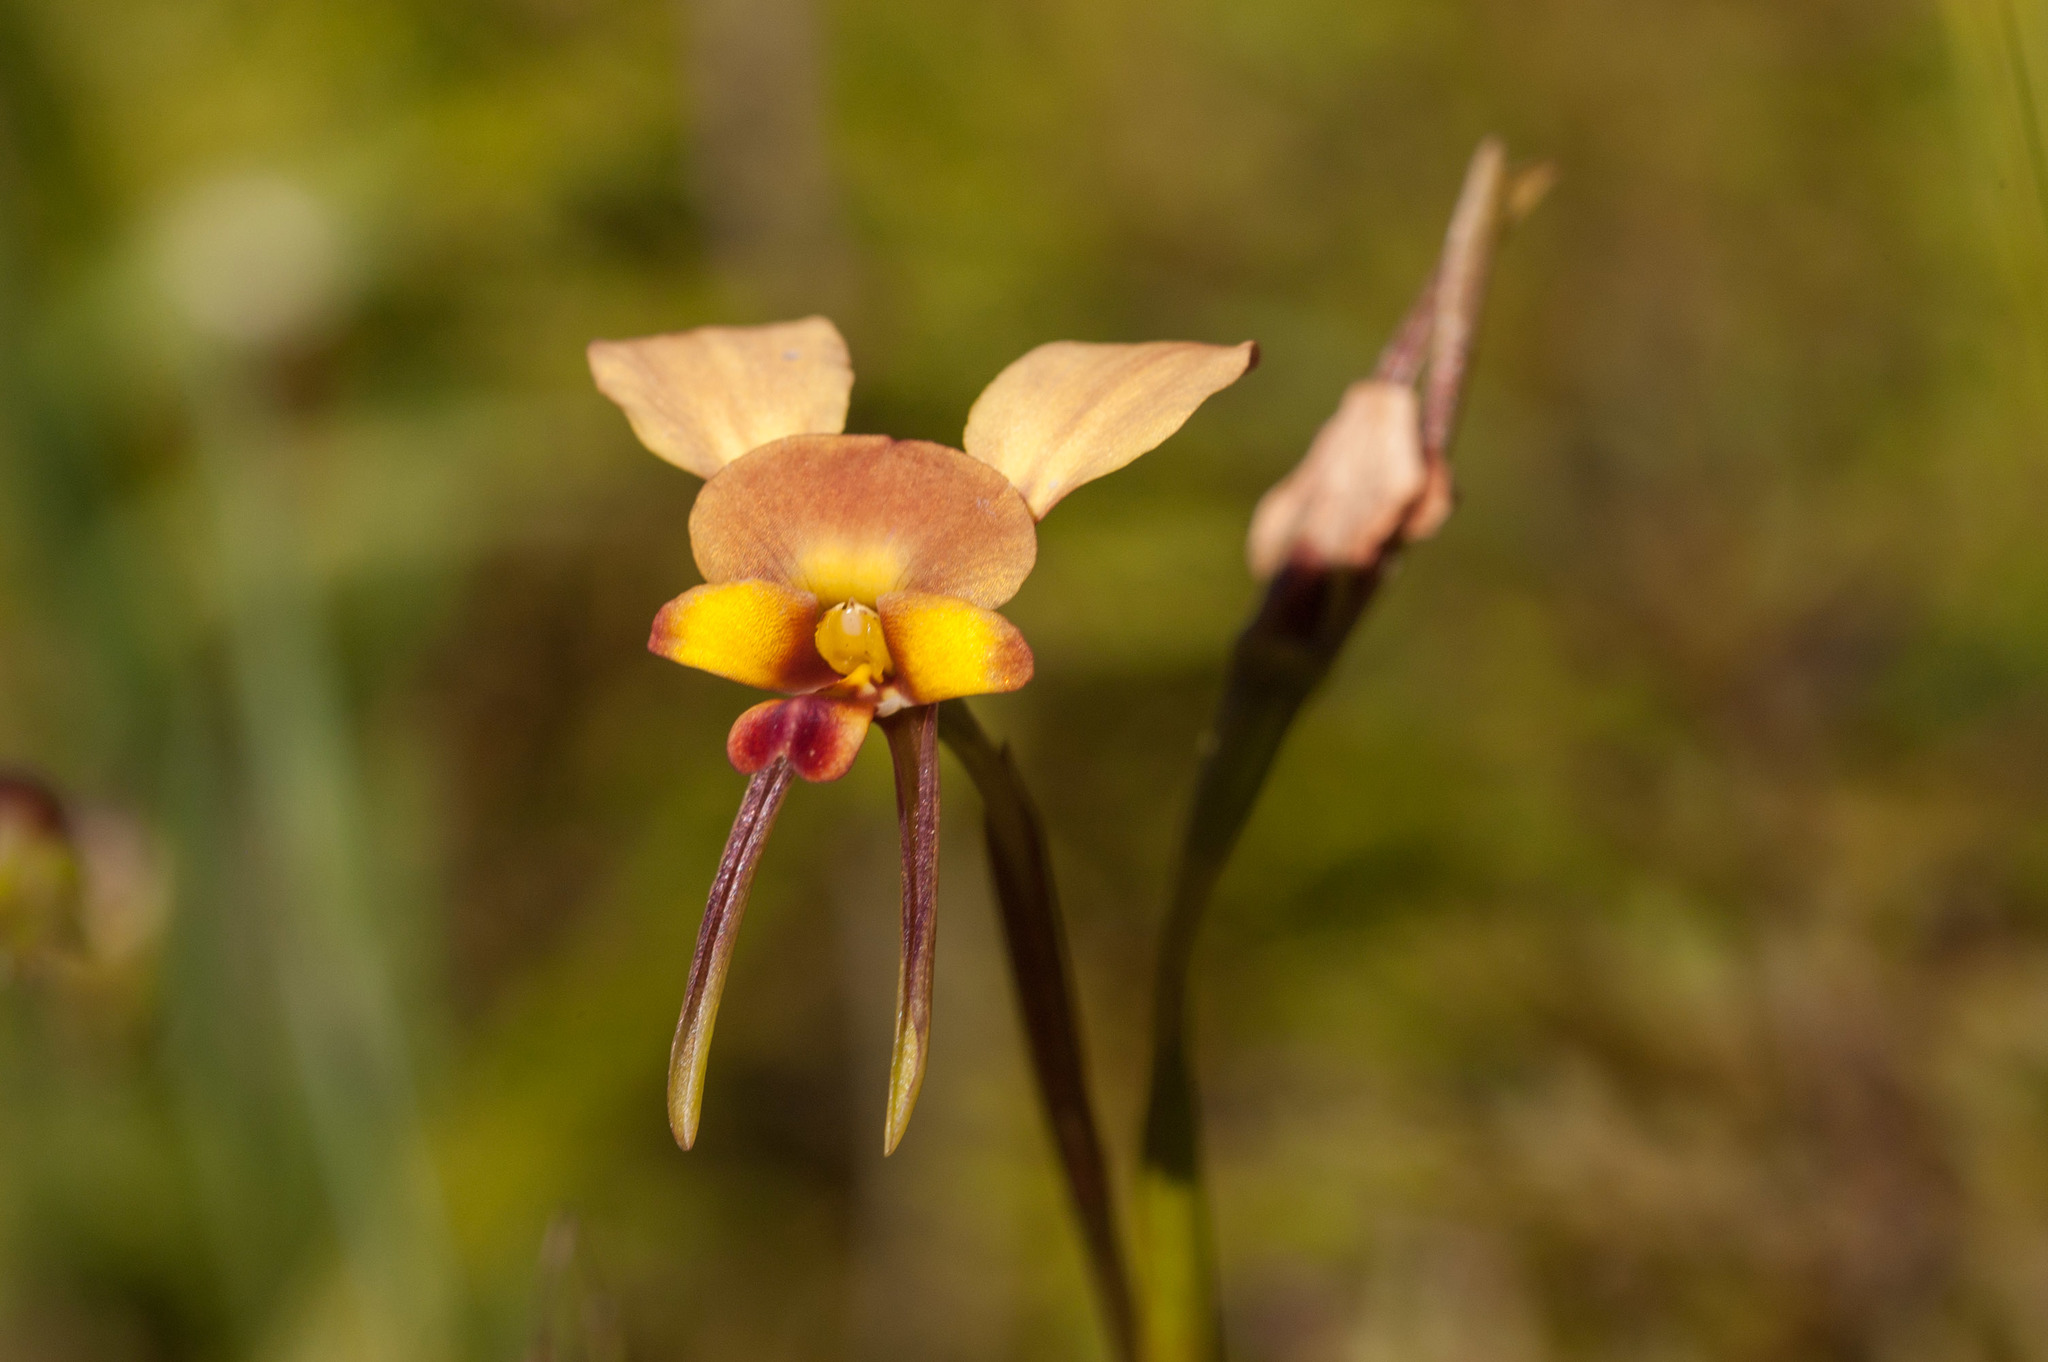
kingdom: Plantae
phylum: Tracheophyta
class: Liliopsida
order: Asparagales
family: Orchidaceae
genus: Diuris
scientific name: Diuris orientis
